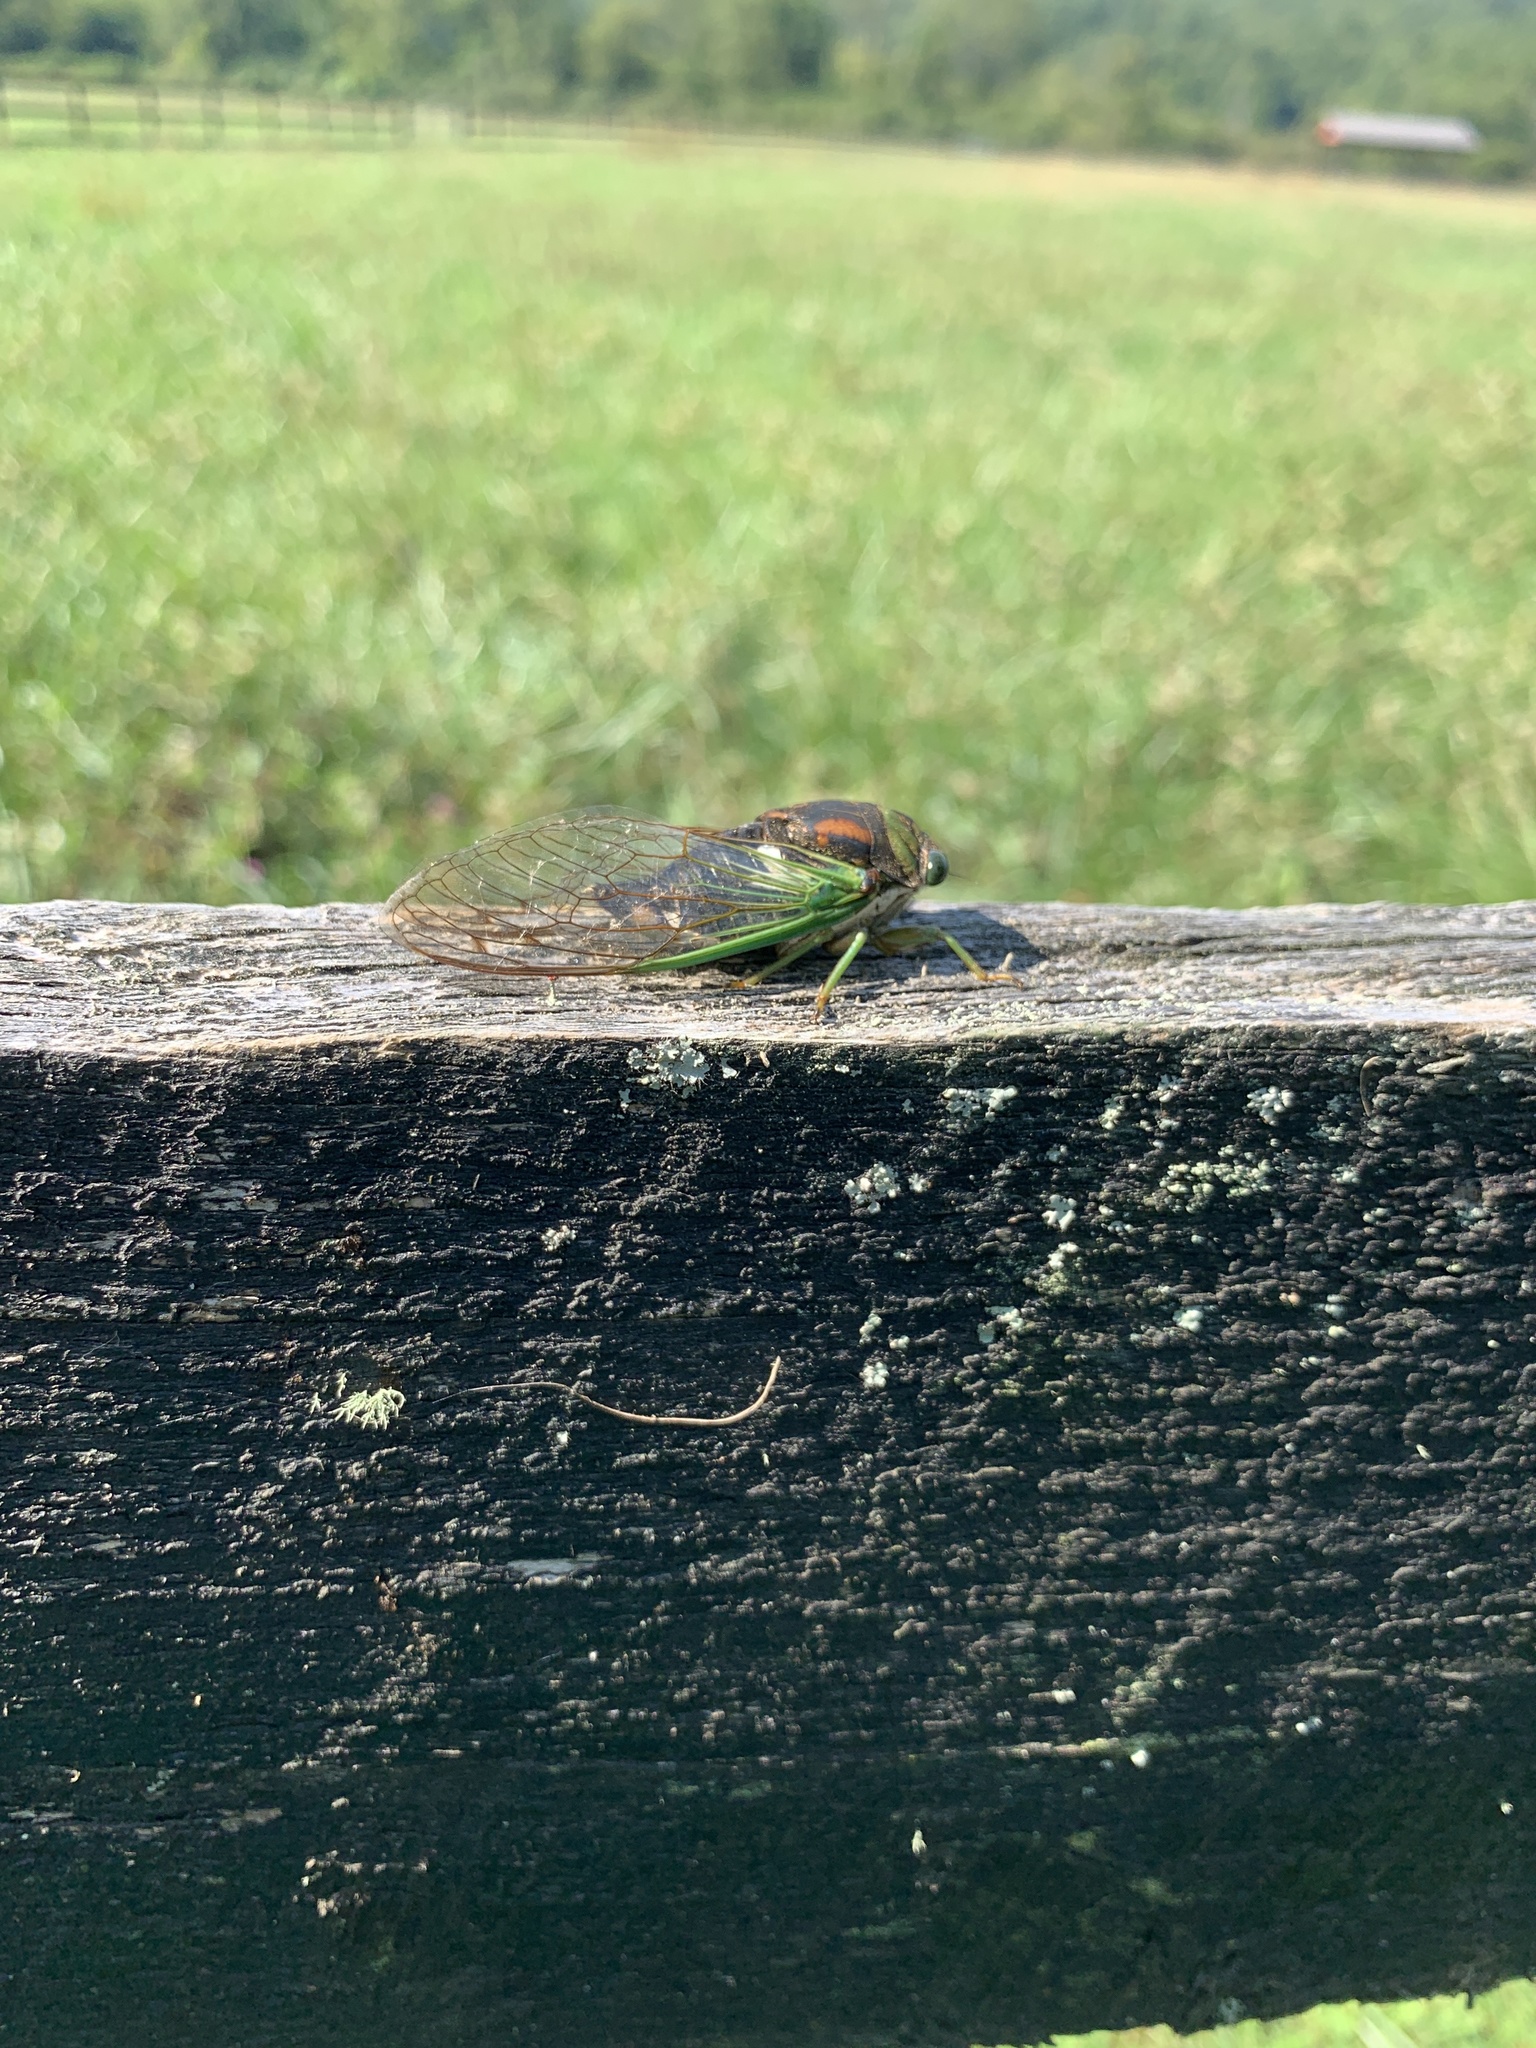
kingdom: Animalia
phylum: Arthropoda
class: Insecta
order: Hemiptera
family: Cicadidae
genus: Neotibicen
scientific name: Neotibicen tibicen
